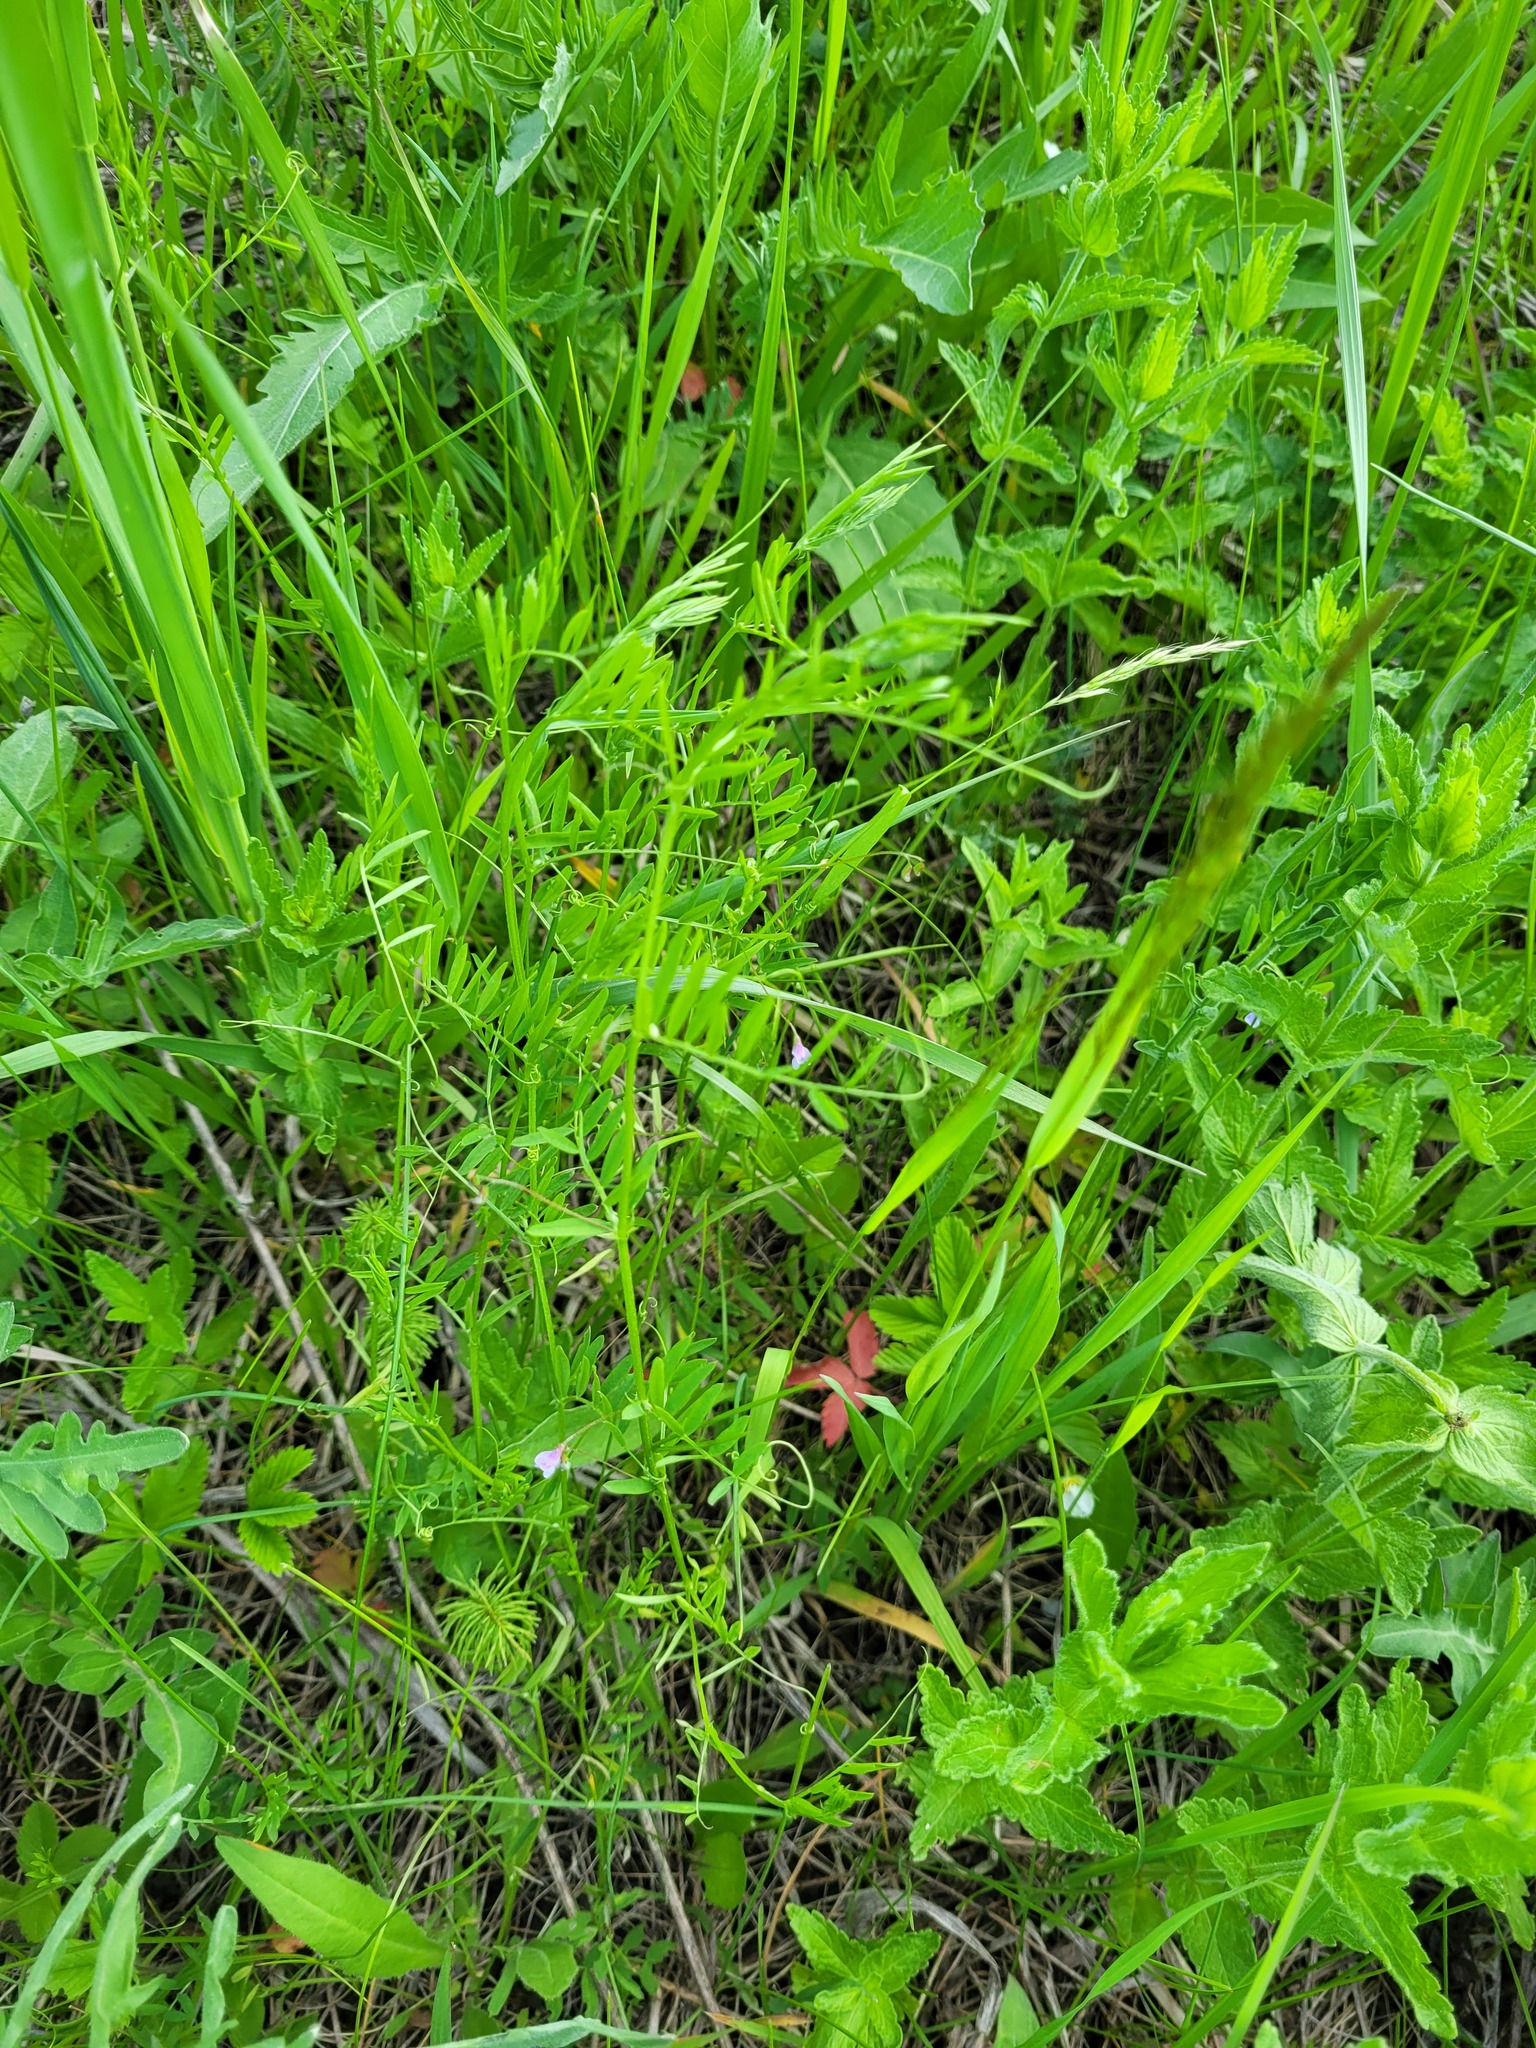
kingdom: Plantae
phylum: Tracheophyta
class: Magnoliopsida
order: Fabales
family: Fabaceae
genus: Vicia
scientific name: Vicia tetrasperma
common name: Smooth tare
